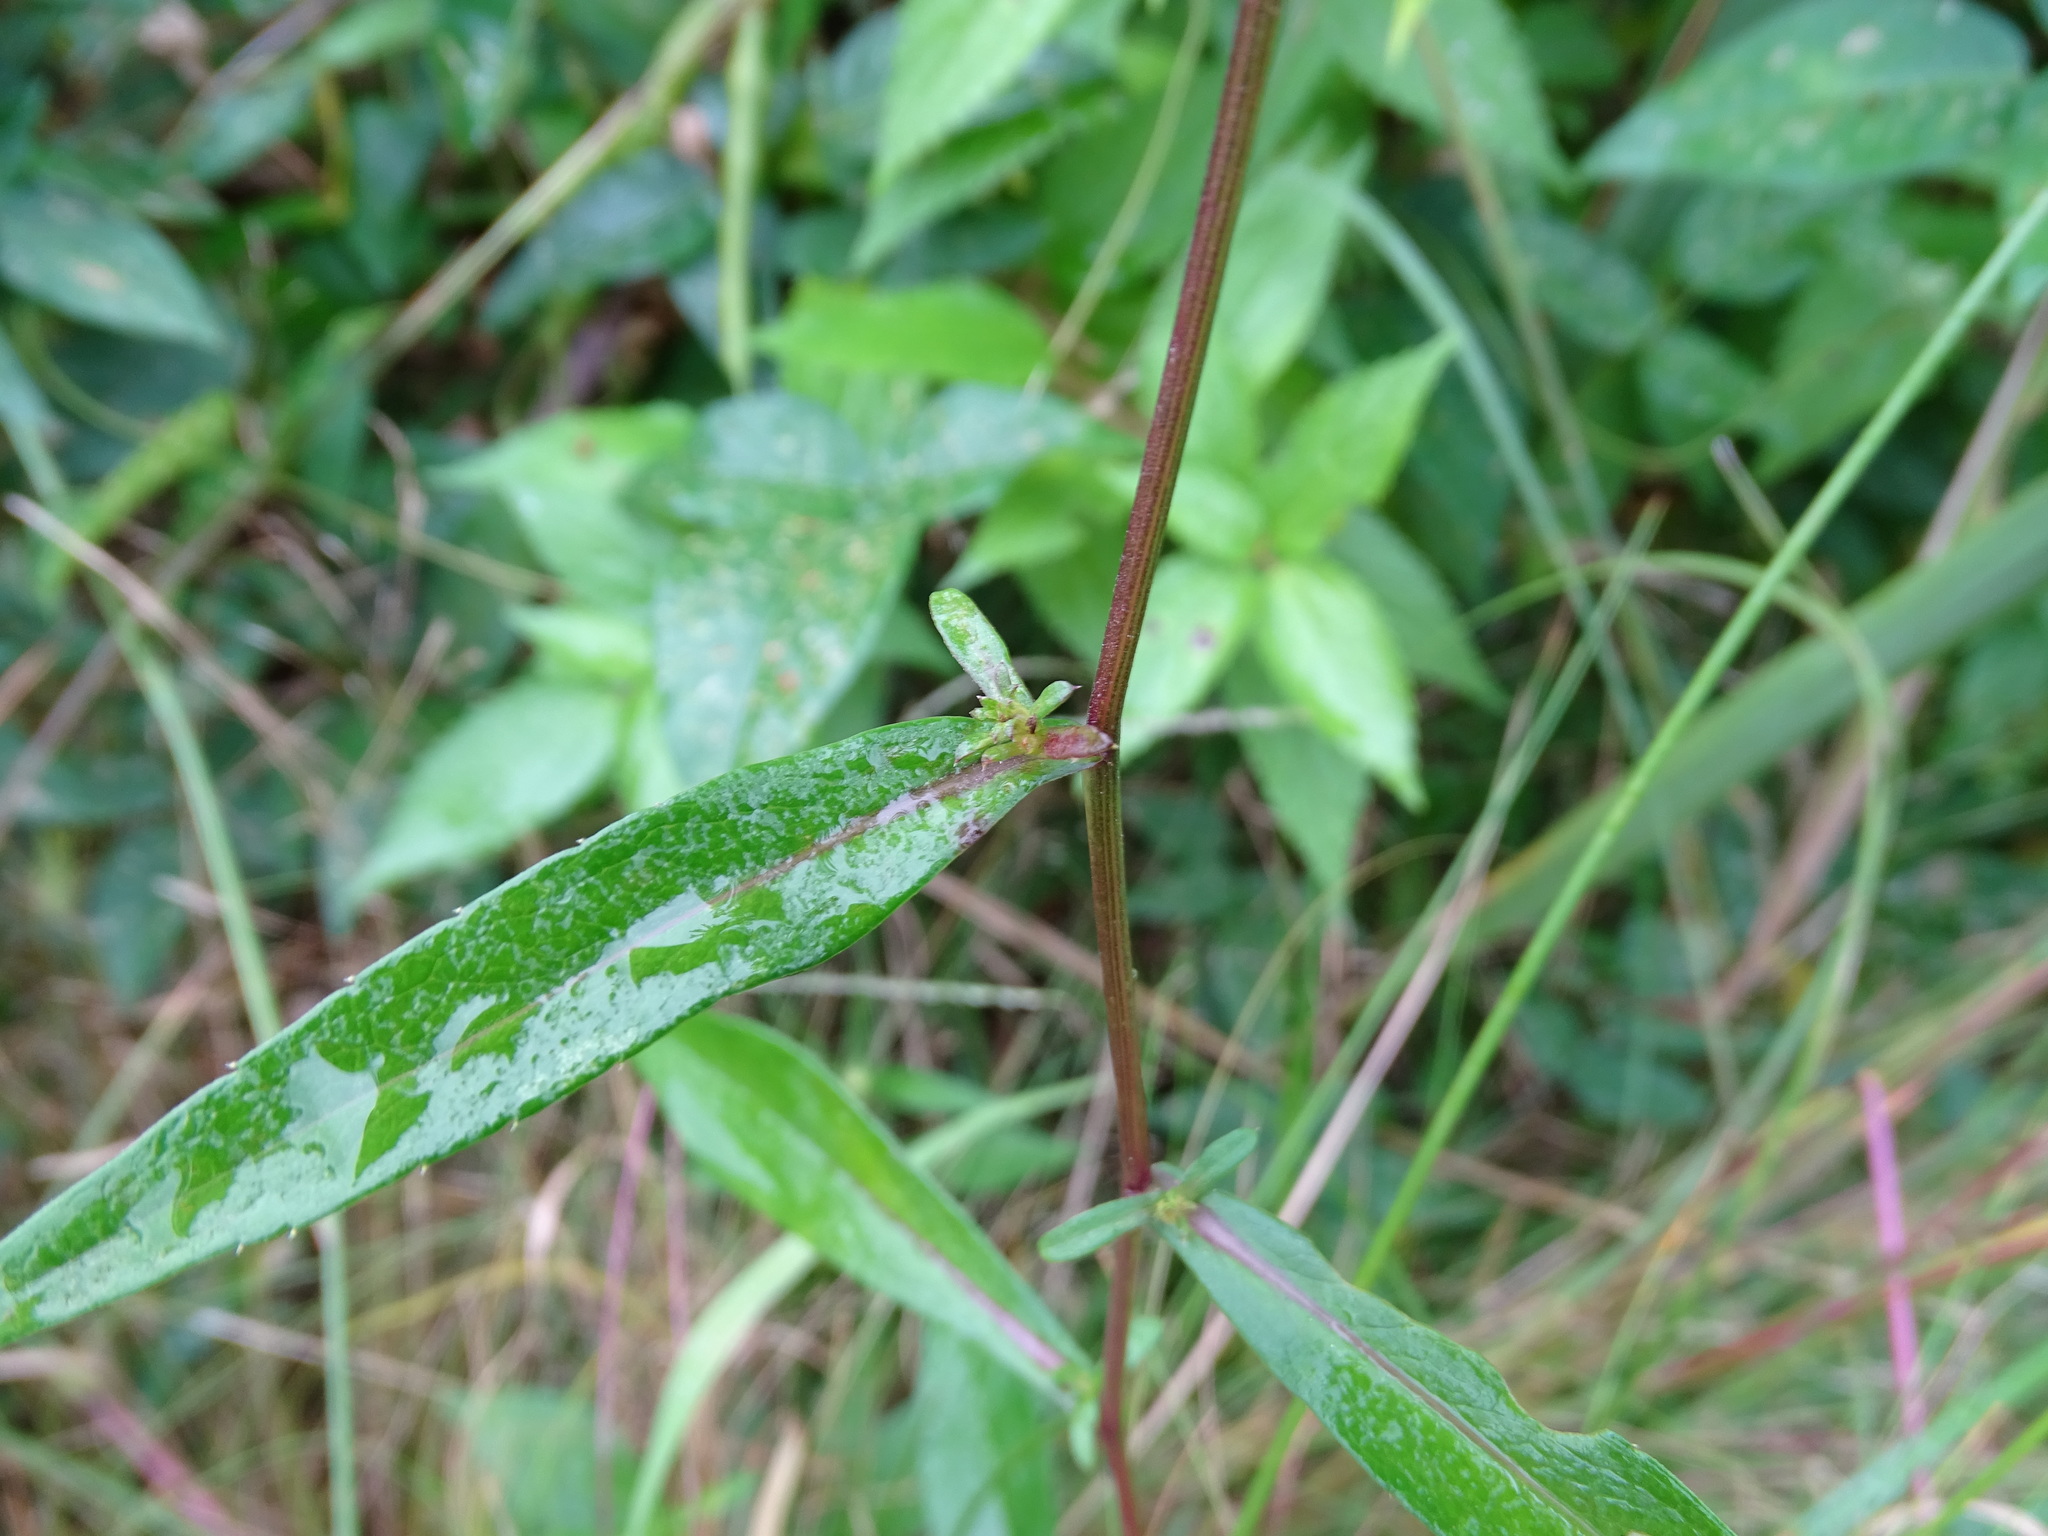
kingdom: Plantae
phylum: Tracheophyta
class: Magnoliopsida
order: Asterales
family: Asteraceae
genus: Symphyotrichum
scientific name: Symphyotrichum novi-belgii
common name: Michaelmas daisy
